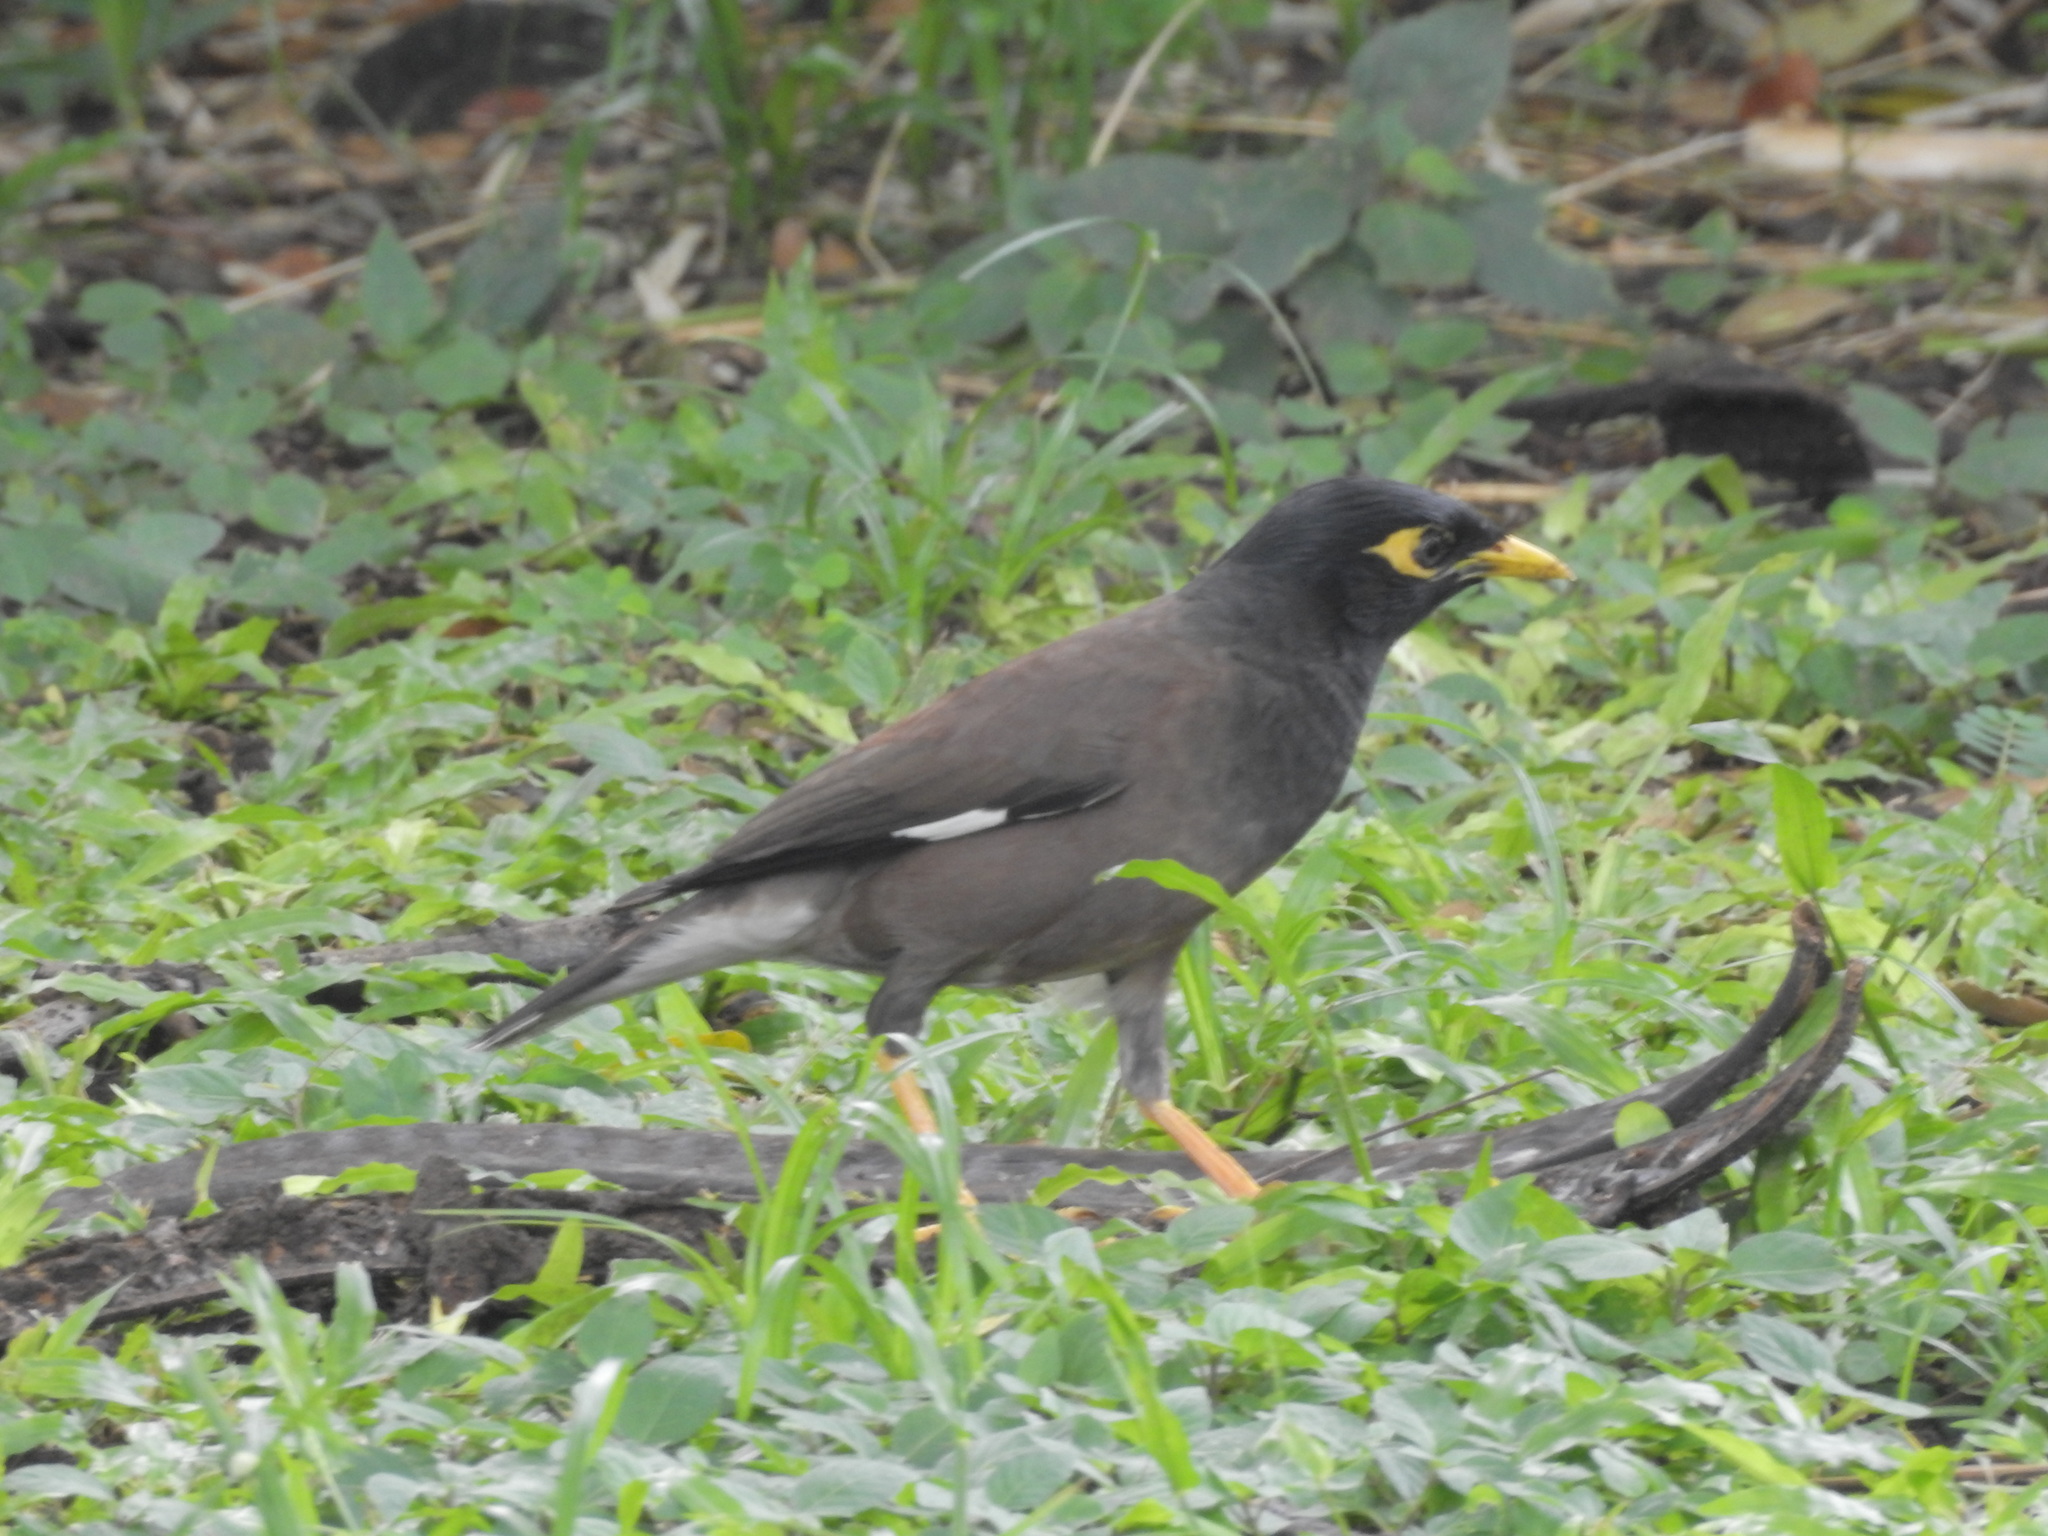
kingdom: Animalia
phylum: Chordata
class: Aves
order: Passeriformes
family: Sturnidae
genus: Acridotheres
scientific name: Acridotheres tristis
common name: Common myna
